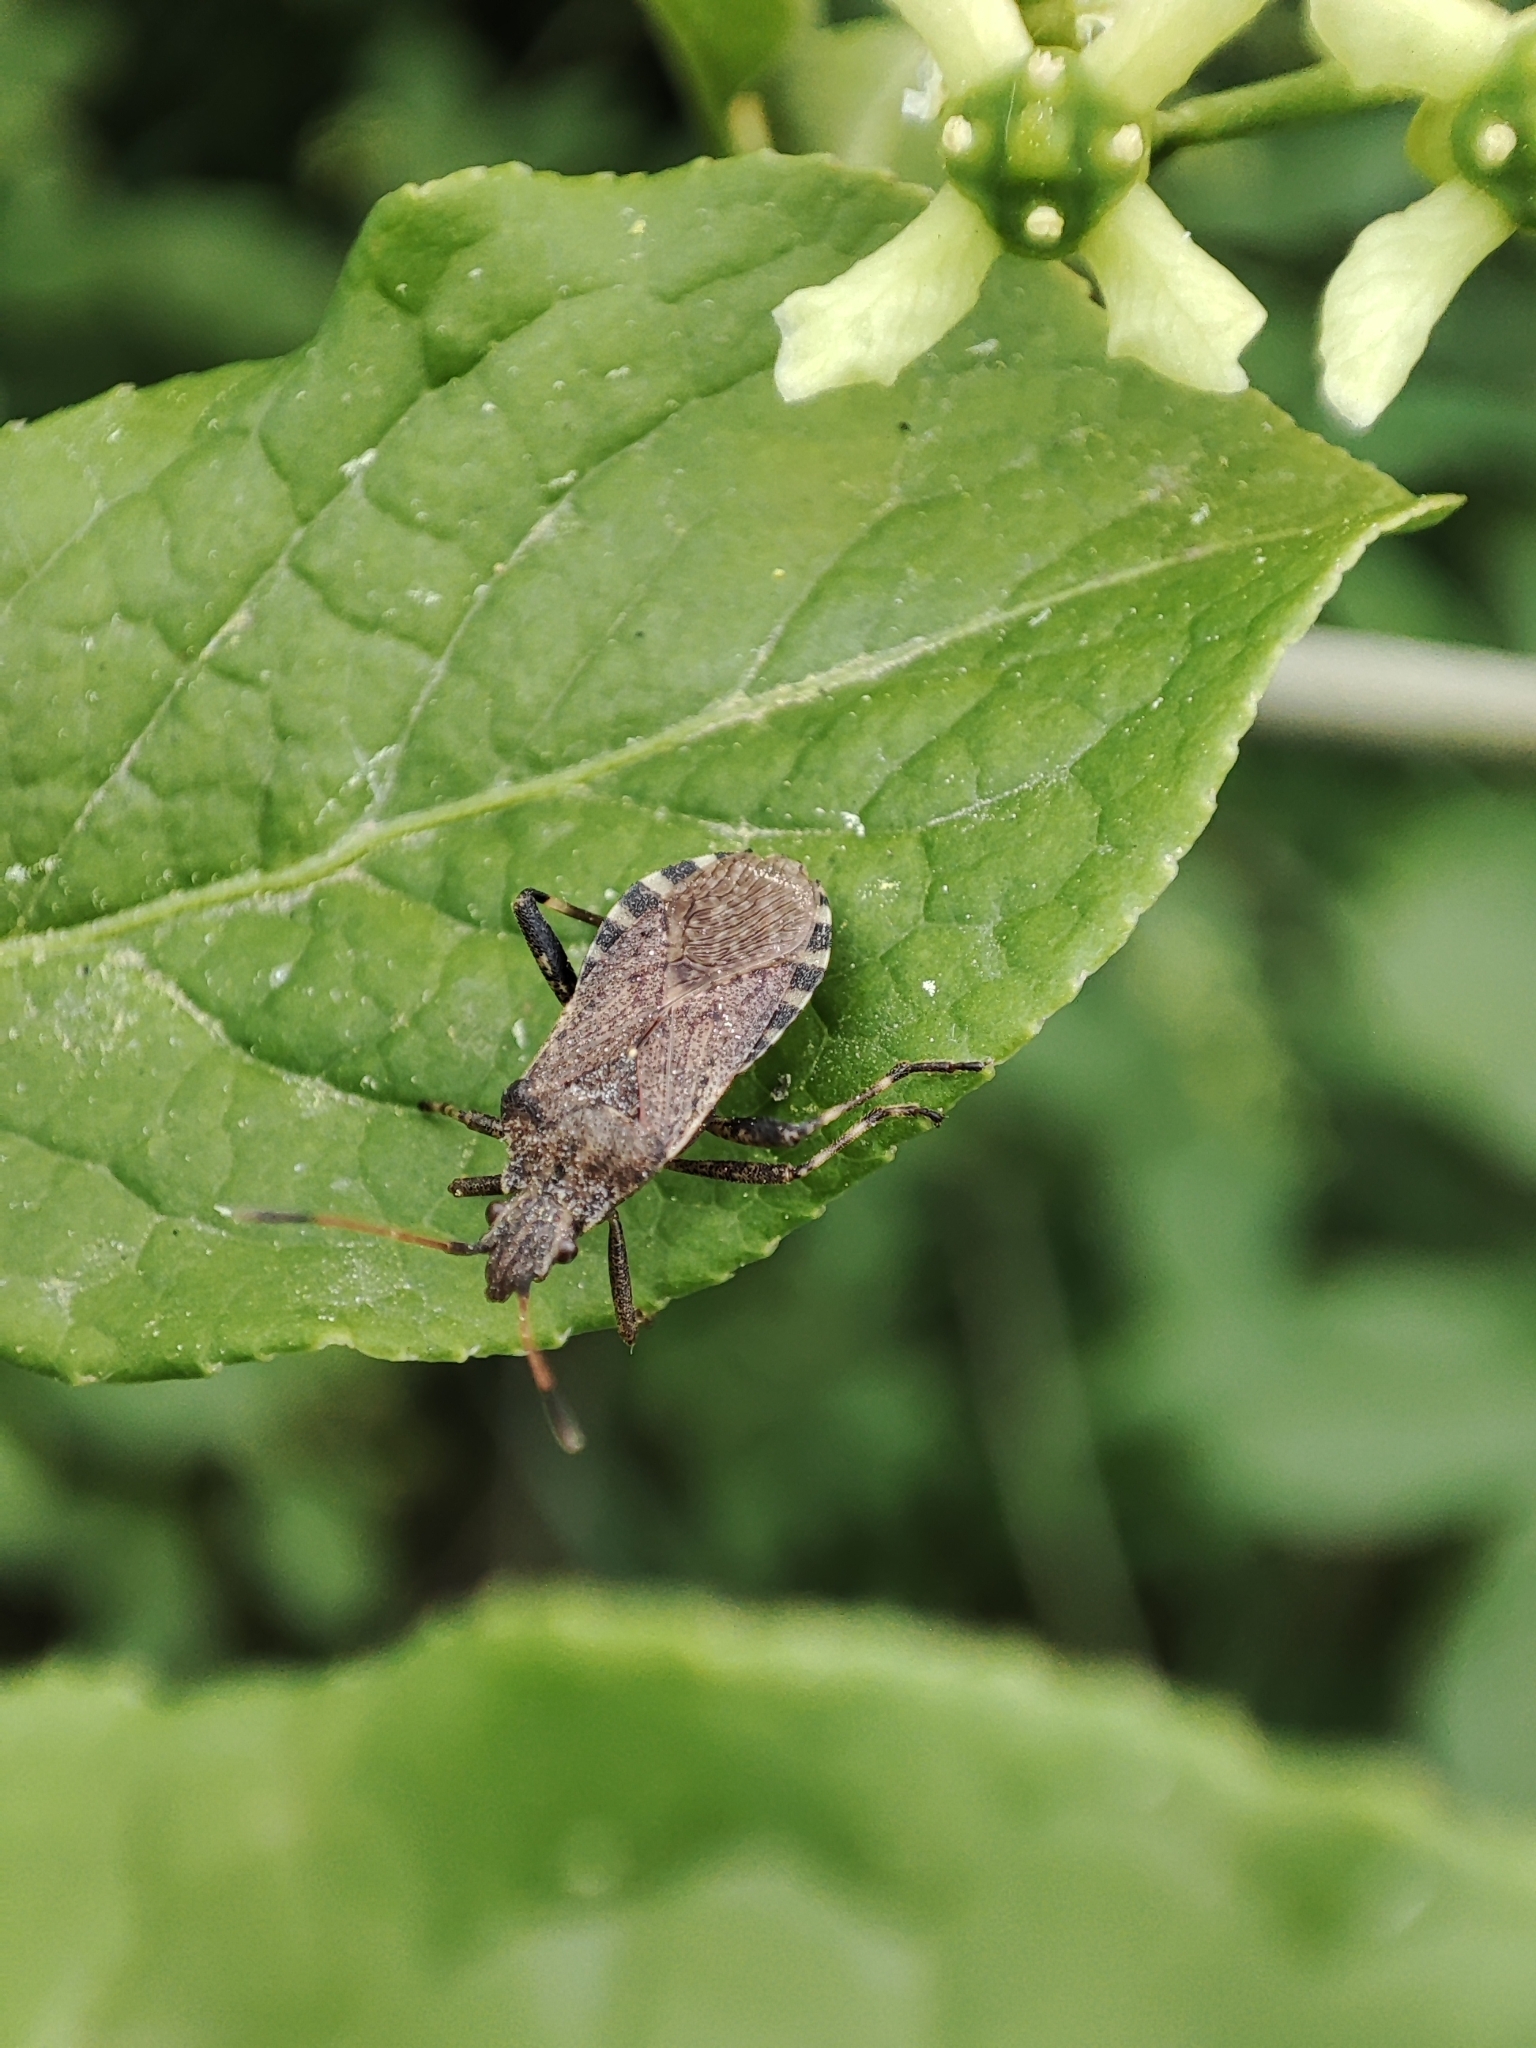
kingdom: Animalia
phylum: Arthropoda
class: Insecta
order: Hemiptera
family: Coreidae
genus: Ceraleptus
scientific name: Ceraleptus gracilicornis
